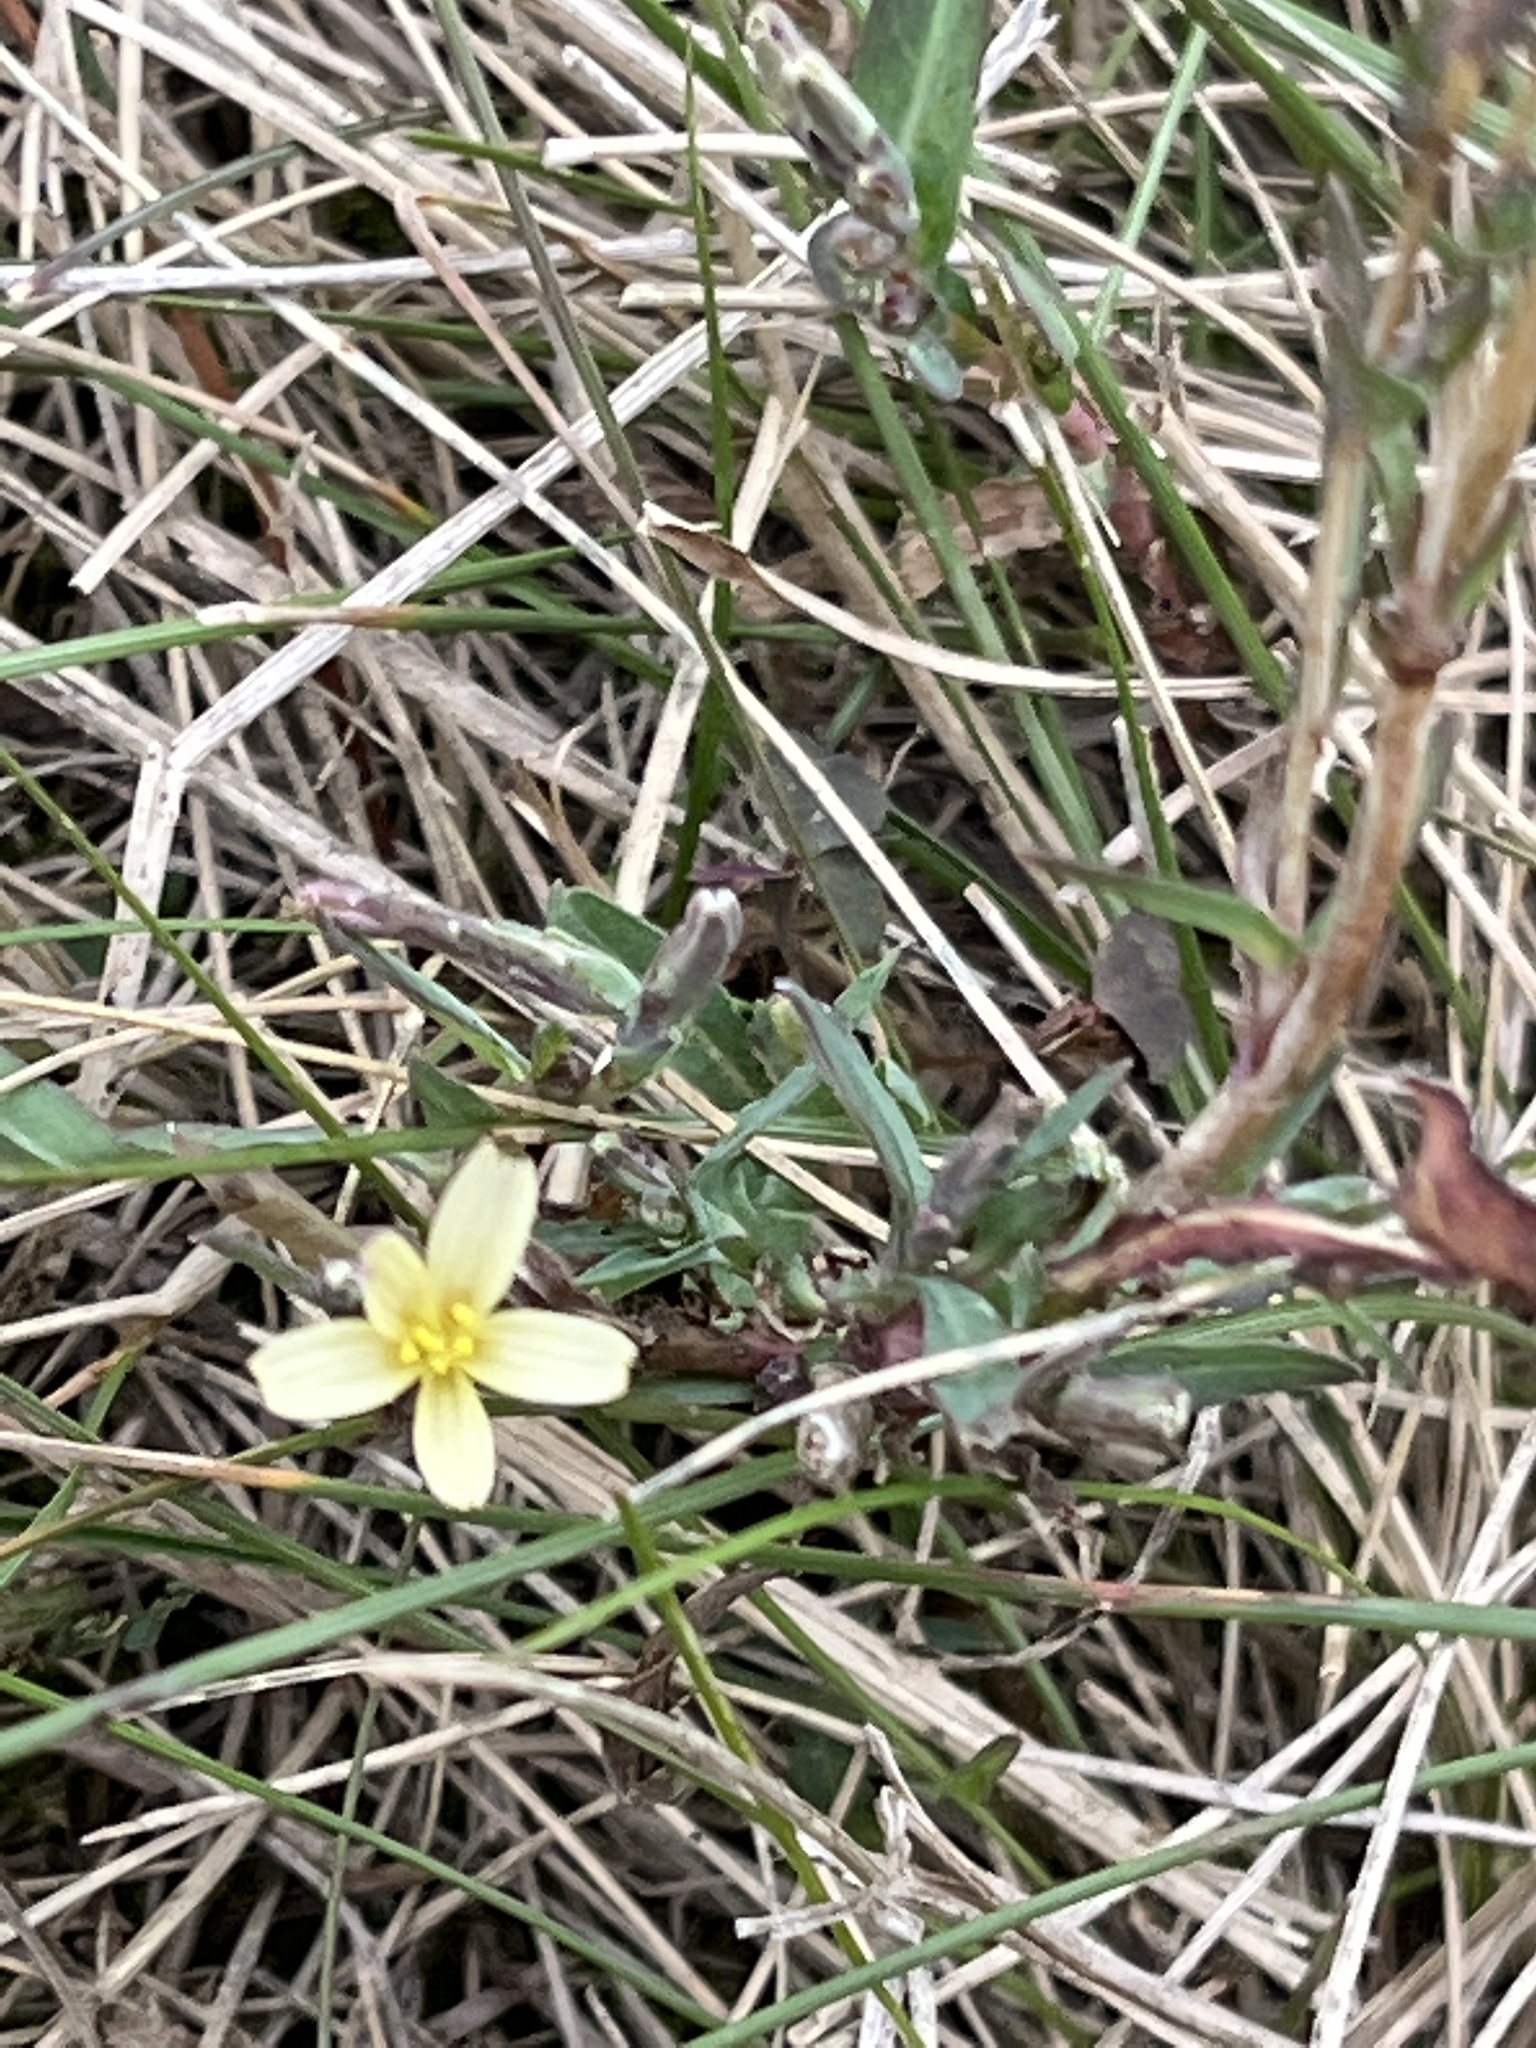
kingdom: Plantae
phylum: Tracheophyta
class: Magnoliopsida
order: Asterales
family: Asteraceae
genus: Lactuca
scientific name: Lactuca saligna
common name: Wild lettuce
